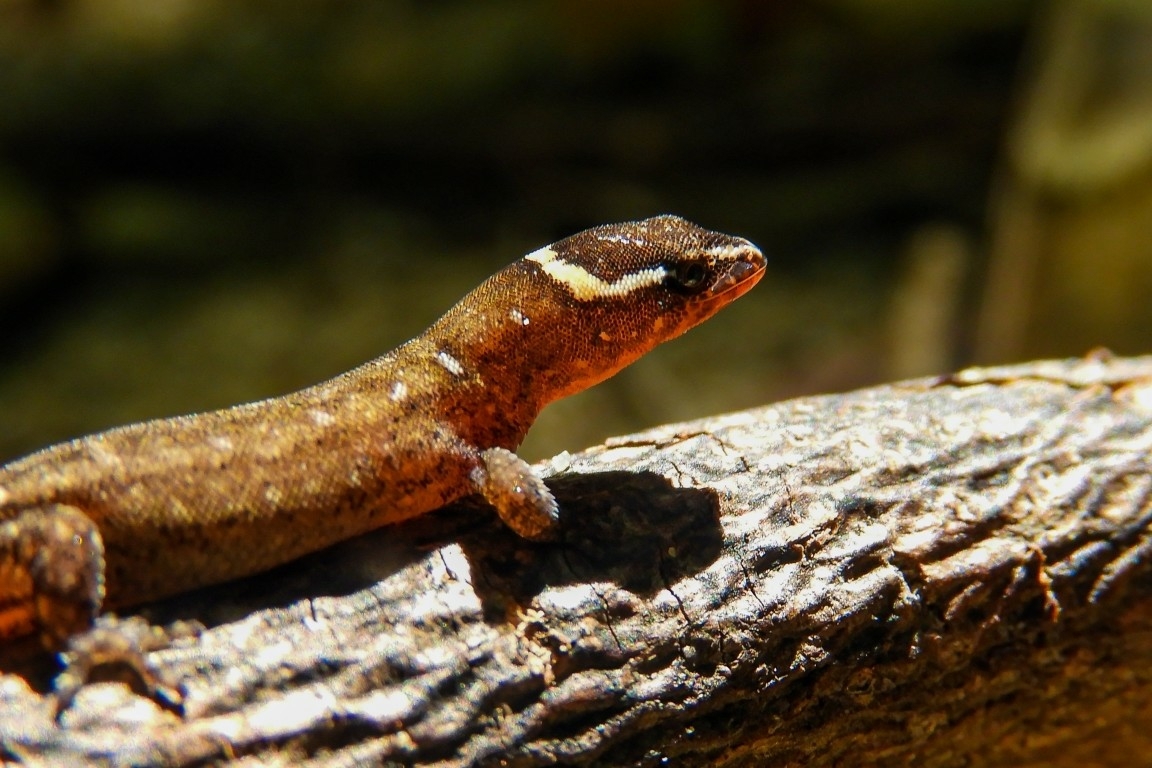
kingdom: Animalia
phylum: Chordata
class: Squamata
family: Sphaerodactylidae
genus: Lepidoblepharis
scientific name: Lepidoblepharis miyatai
